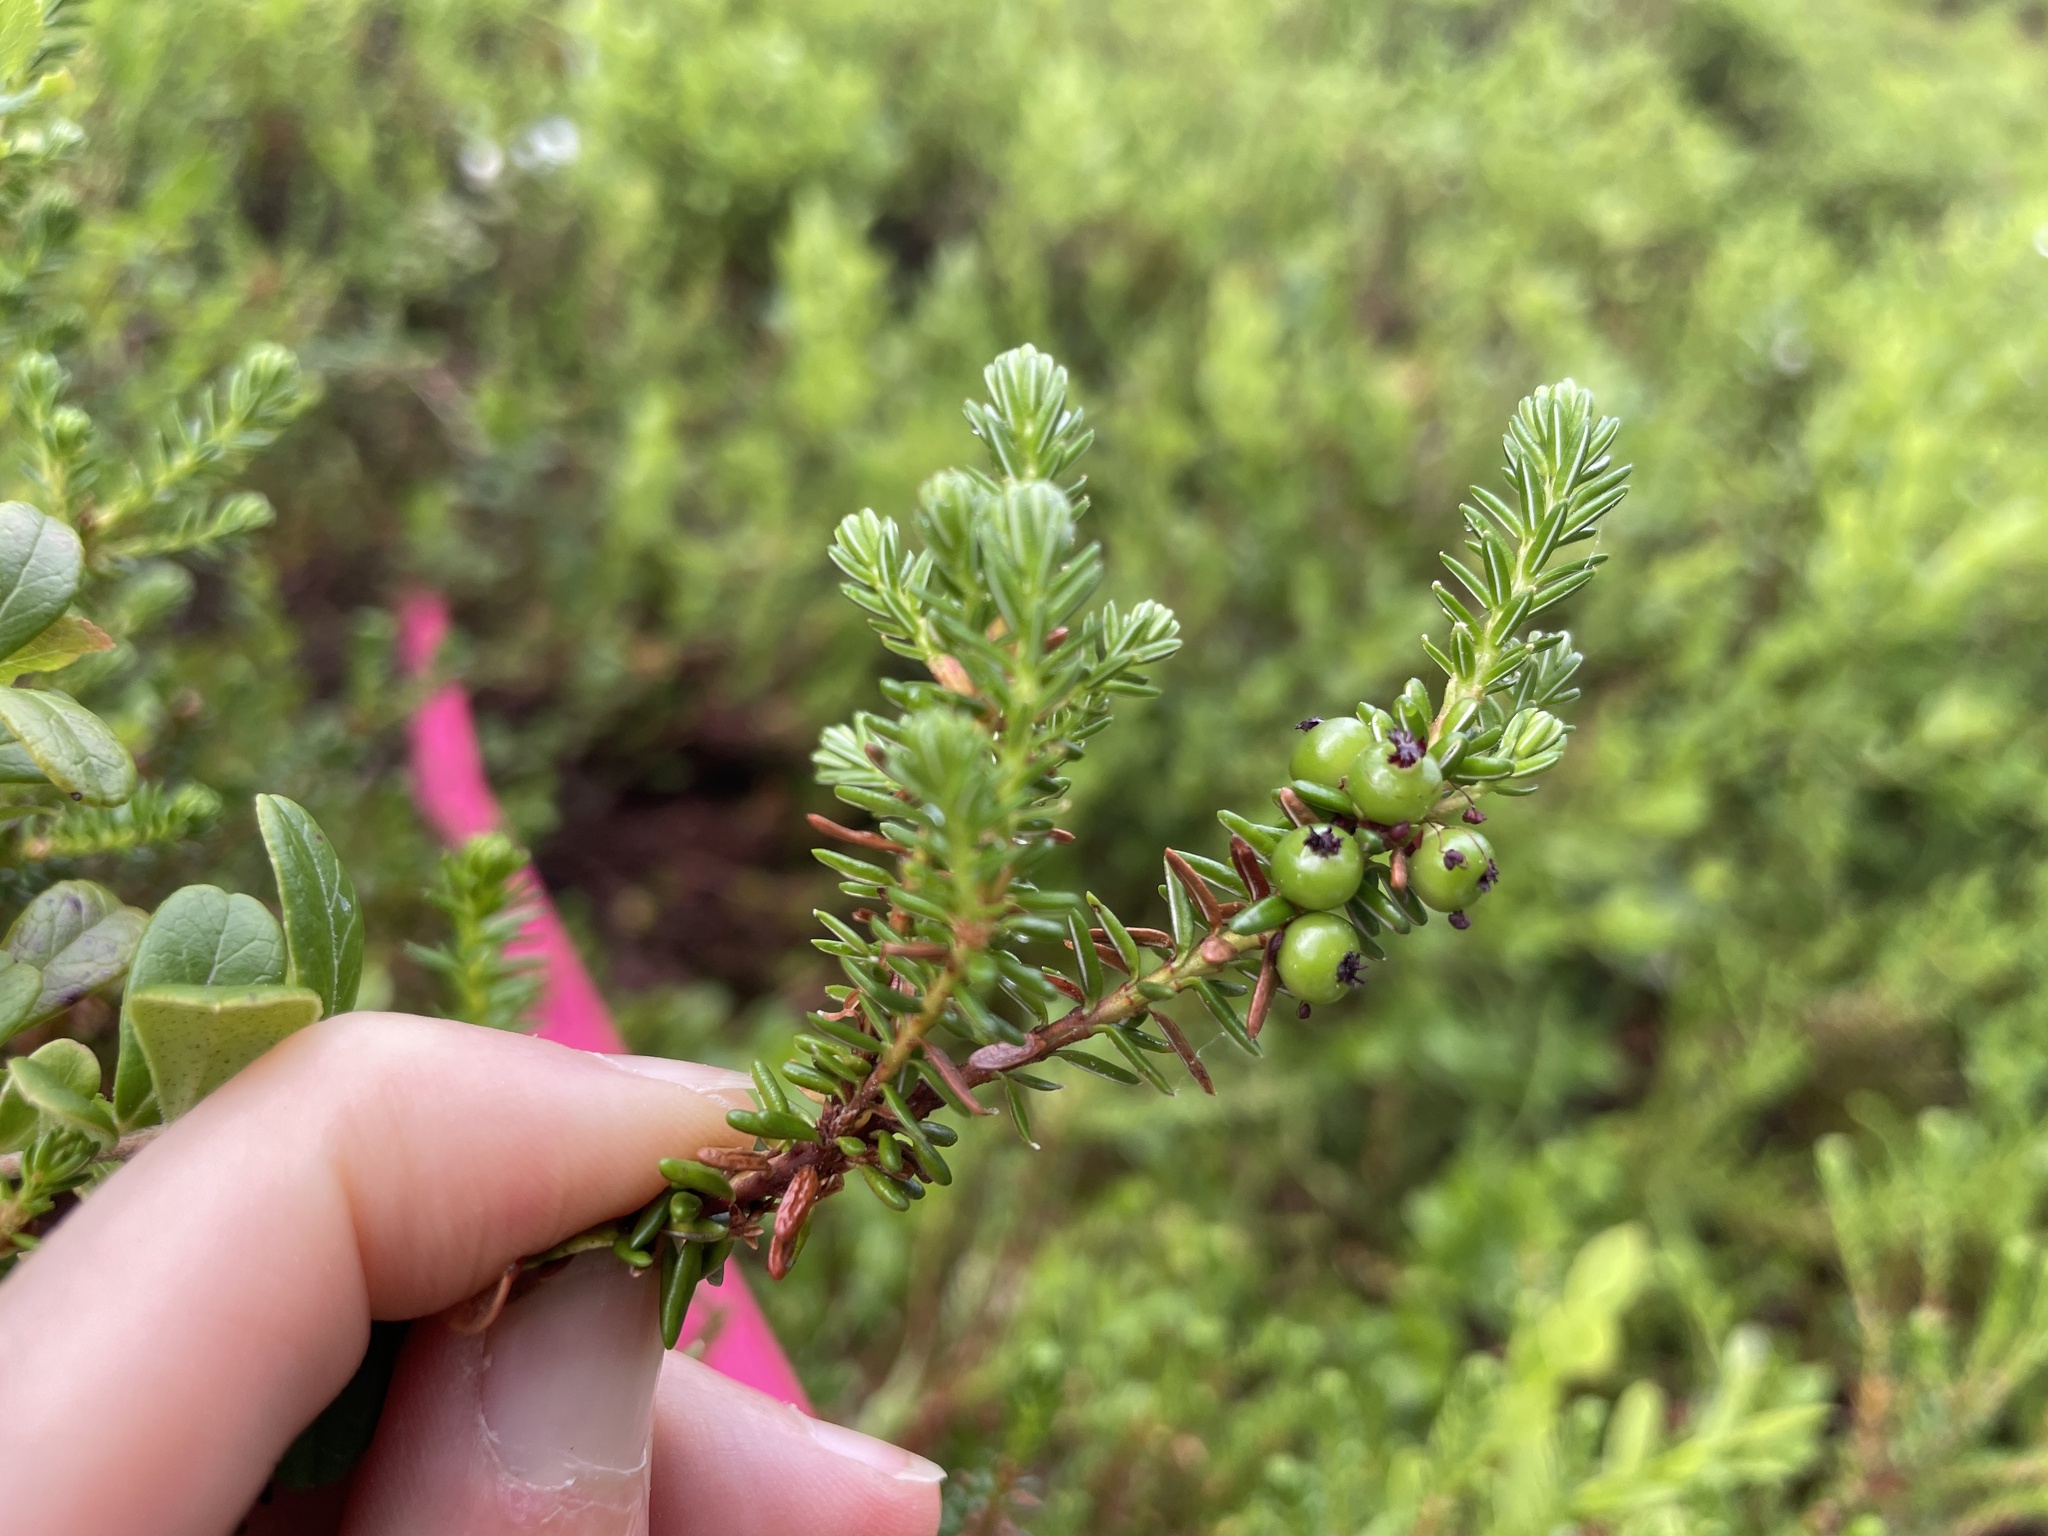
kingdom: Plantae
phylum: Tracheophyta
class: Magnoliopsida
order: Ericales
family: Ericaceae
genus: Empetrum
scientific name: Empetrum nigrum
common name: Black crowberry
